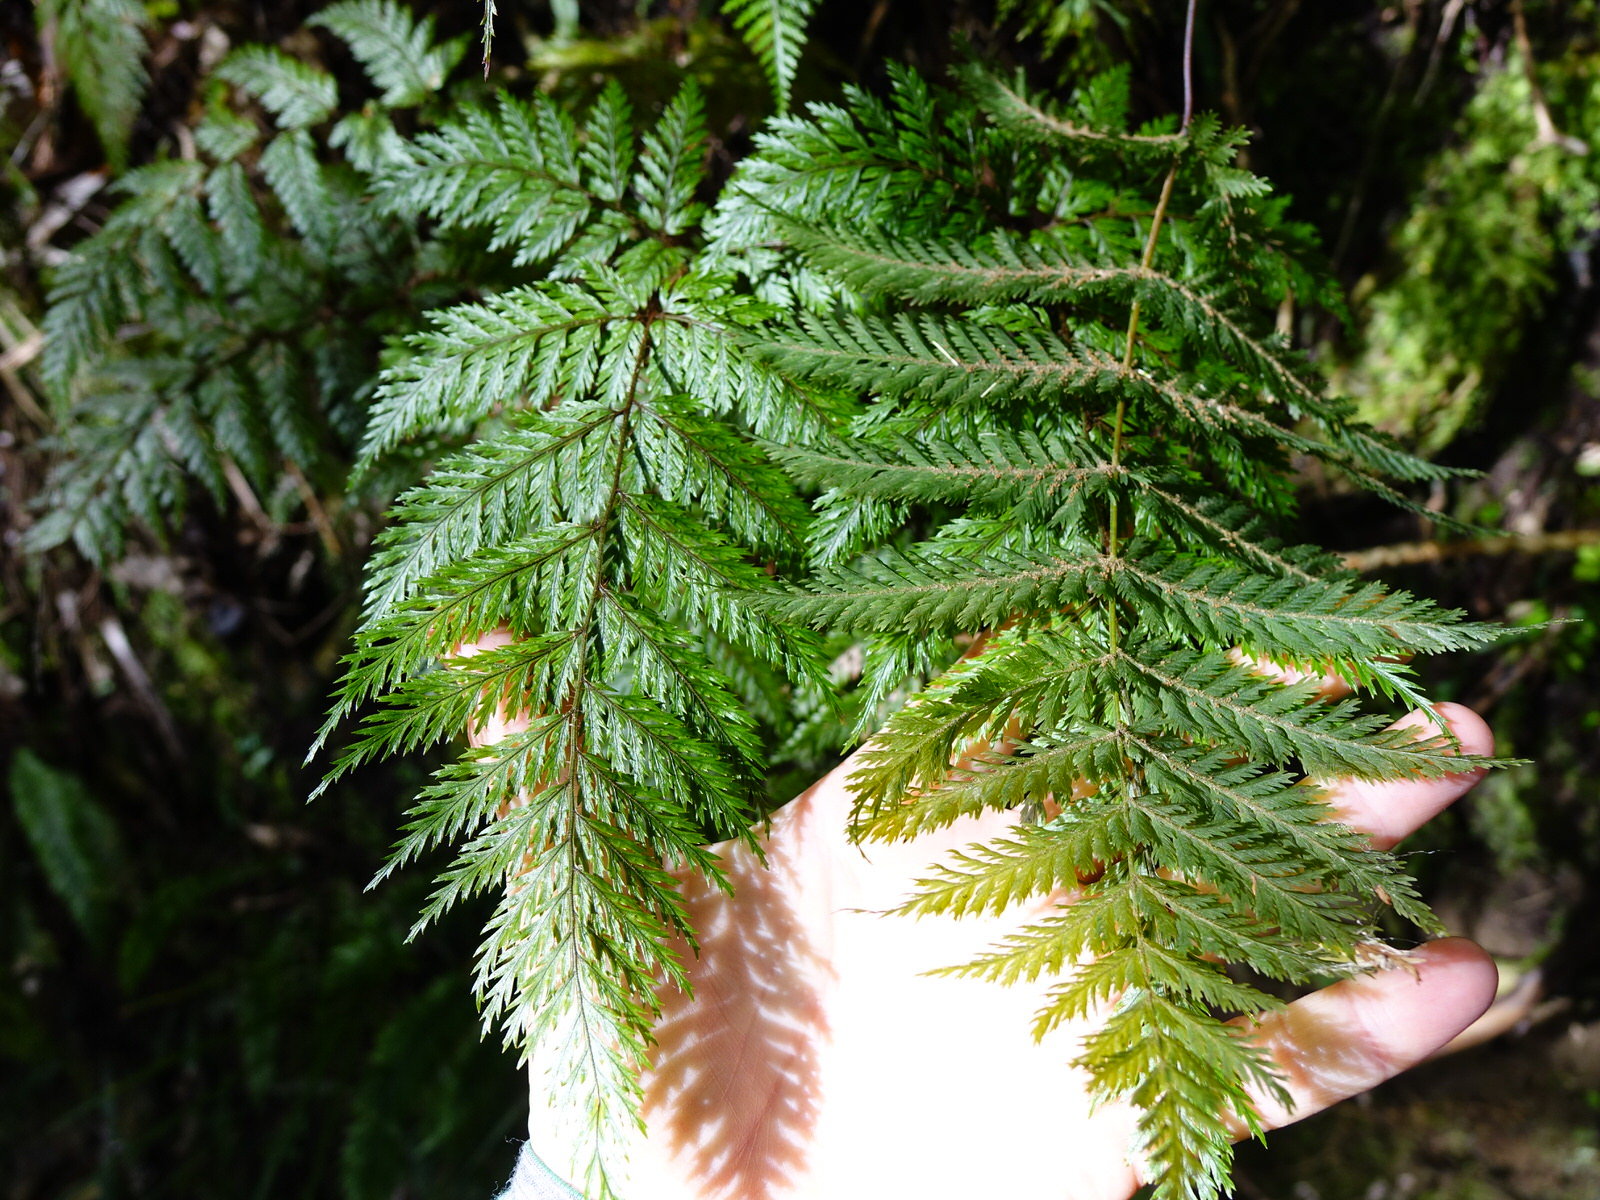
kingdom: Plantae
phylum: Tracheophyta
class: Polypodiopsida
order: Polypodiales
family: Dryopteridaceae
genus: Lastreopsis
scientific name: Lastreopsis hispida
